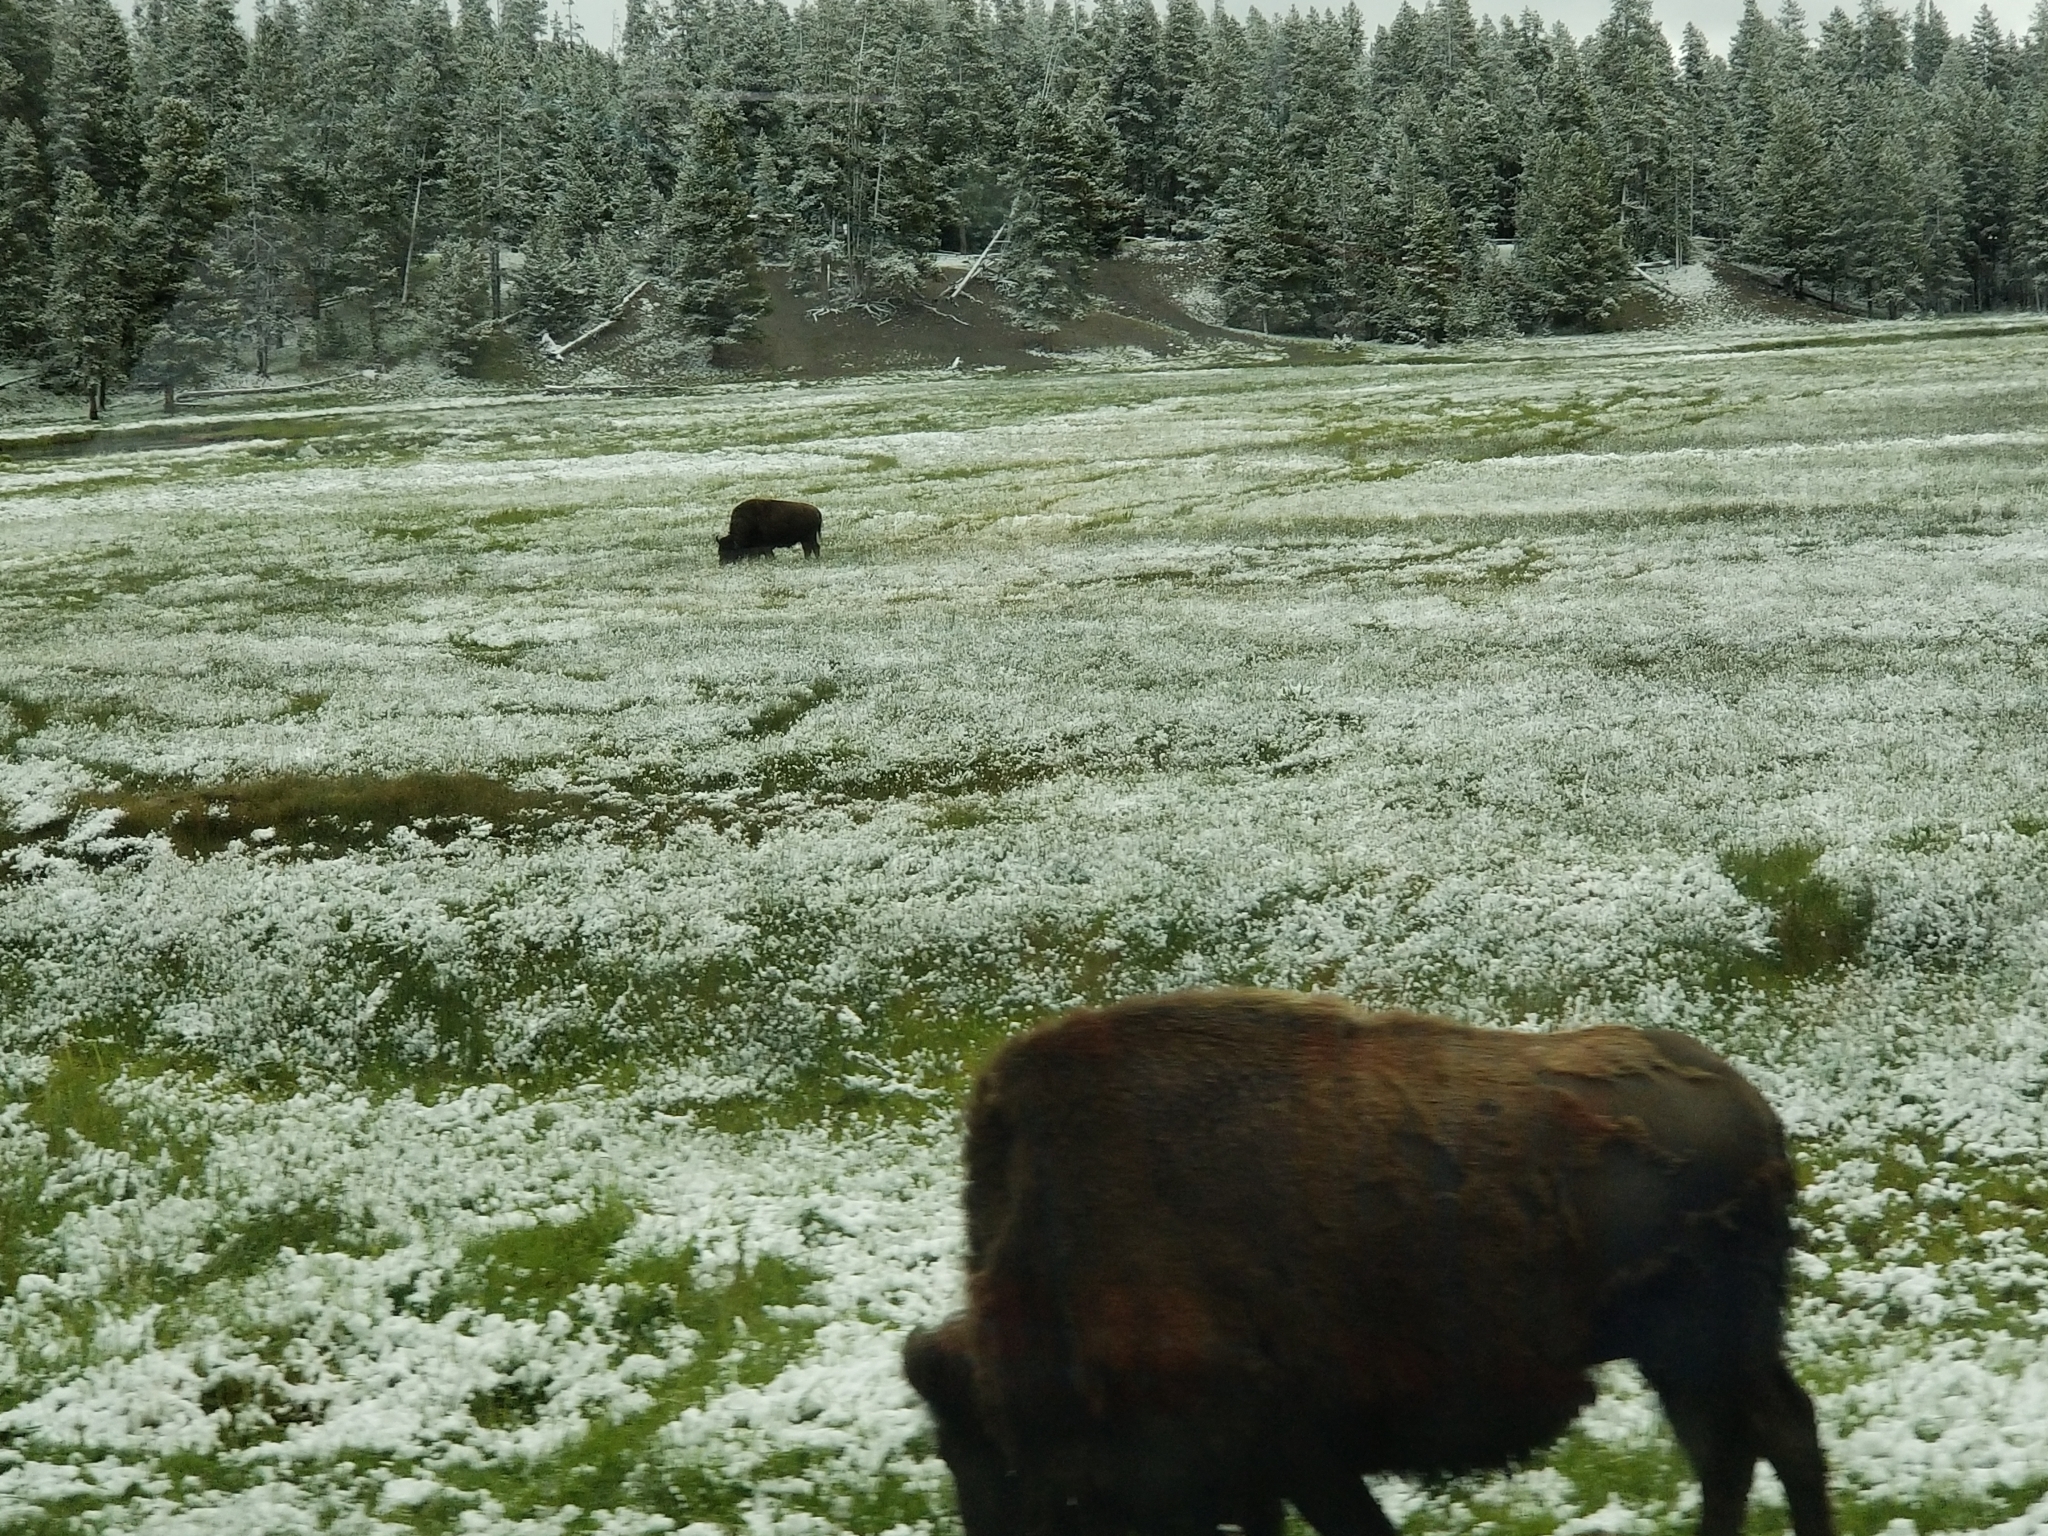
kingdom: Animalia
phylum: Chordata
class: Mammalia
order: Artiodactyla
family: Bovidae
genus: Bison
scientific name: Bison bison
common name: American bison
